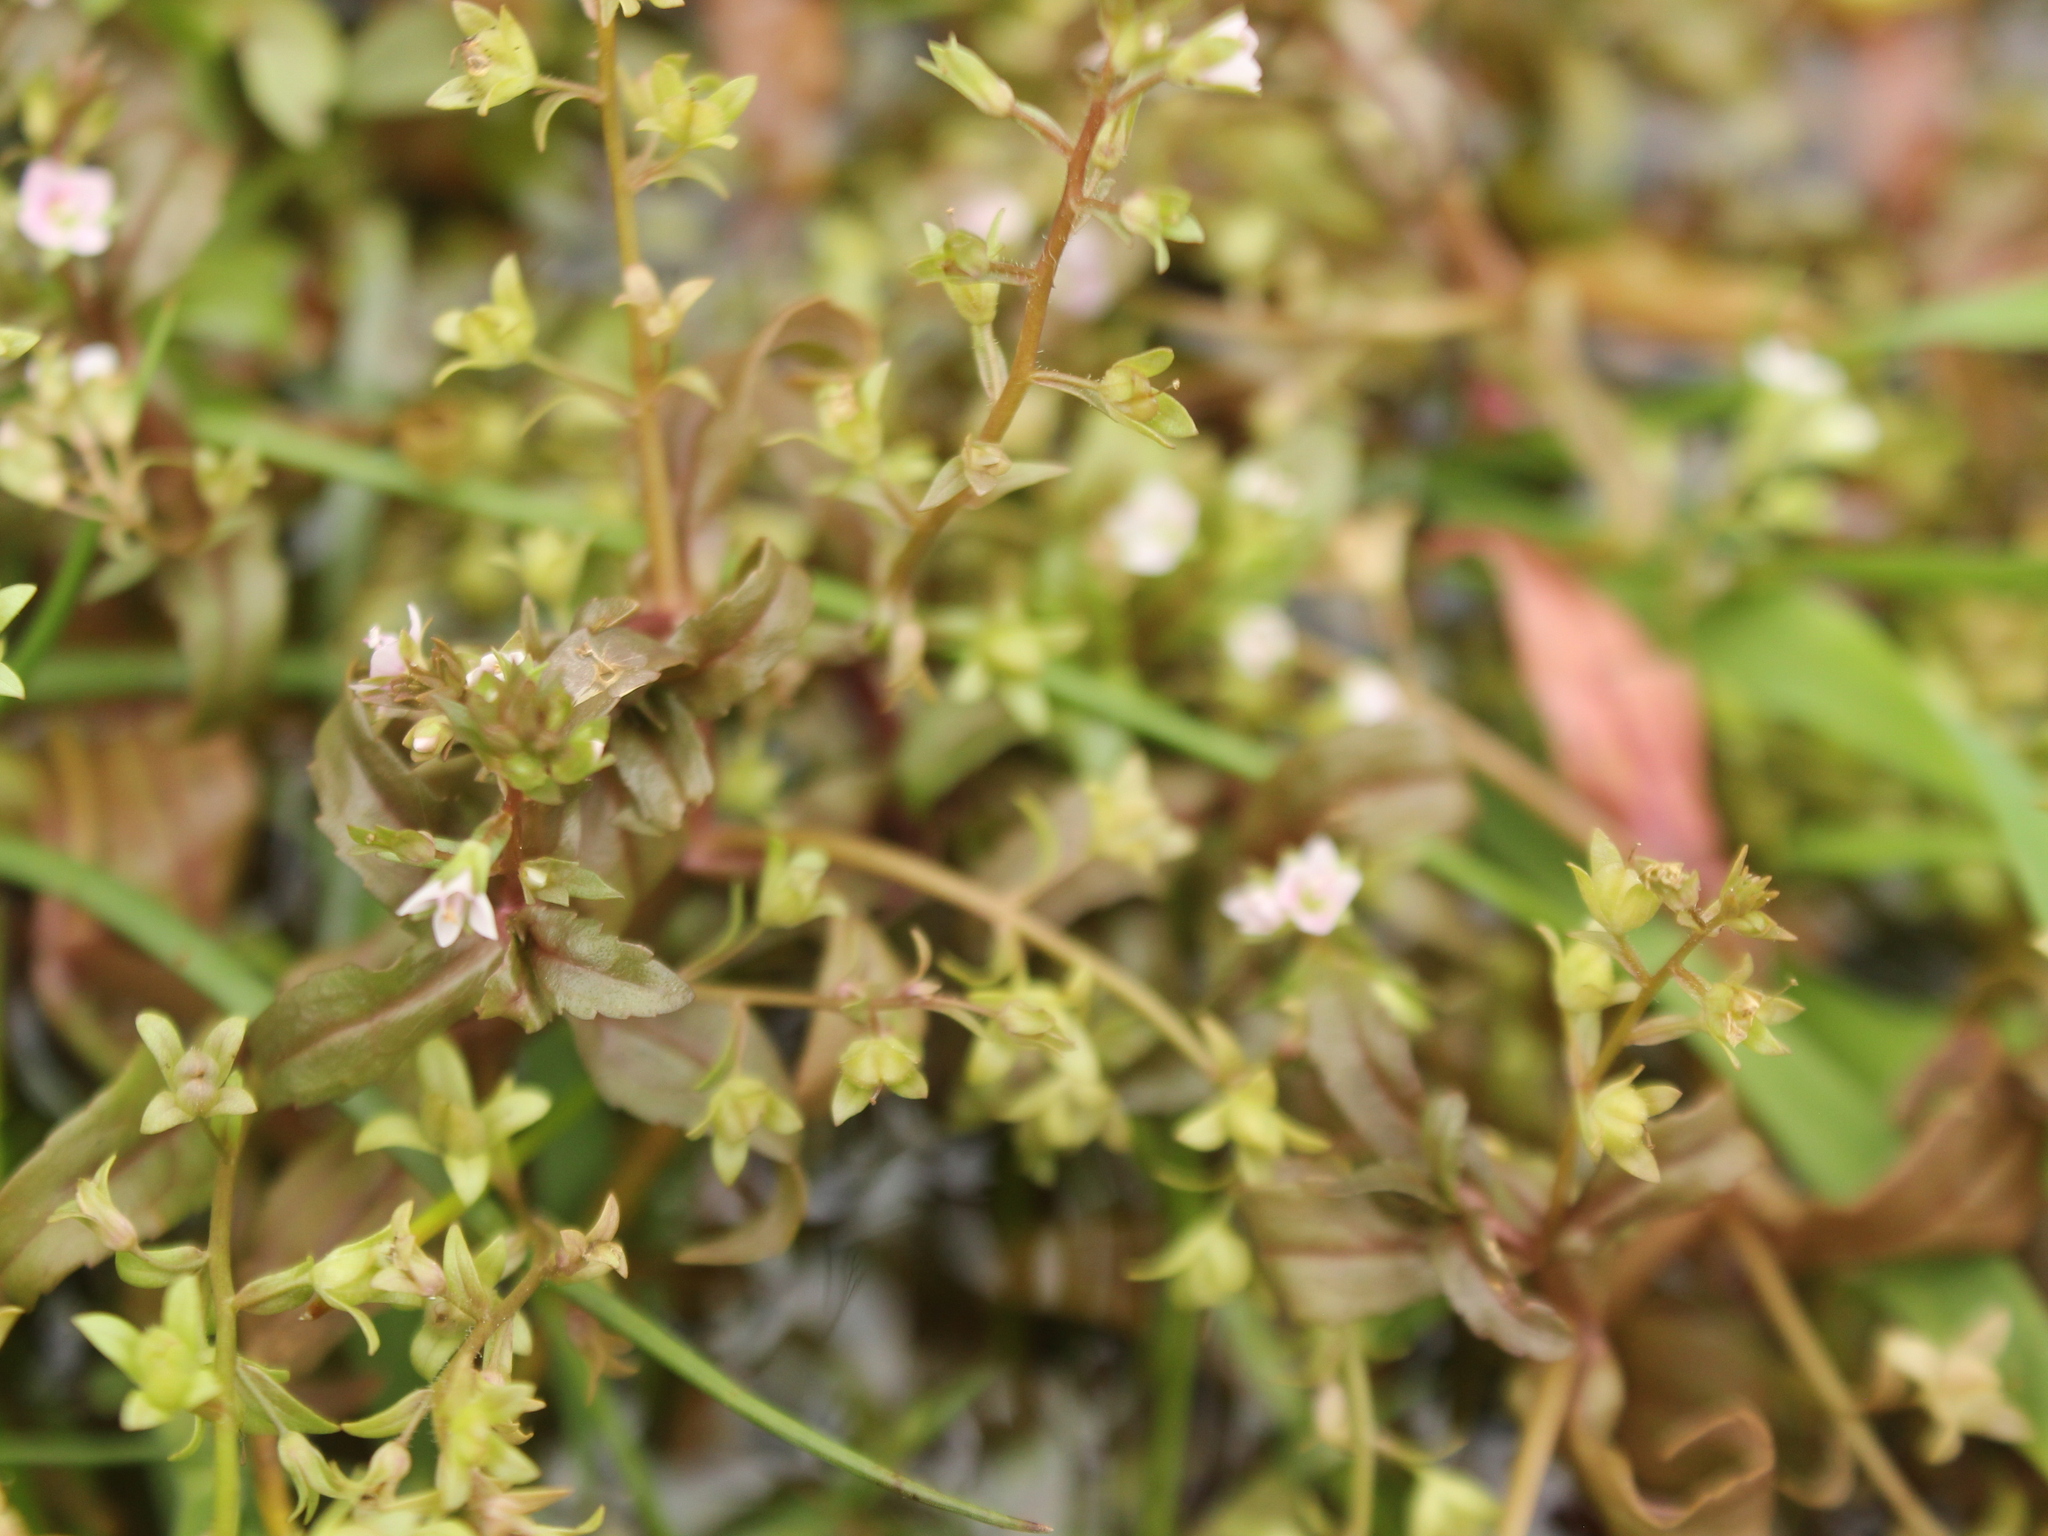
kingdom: Plantae
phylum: Tracheophyta
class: Magnoliopsida
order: Lamiales
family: Plantaginaceae
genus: Veronica
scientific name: Veronica catenata
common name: Pink water-speedwell
